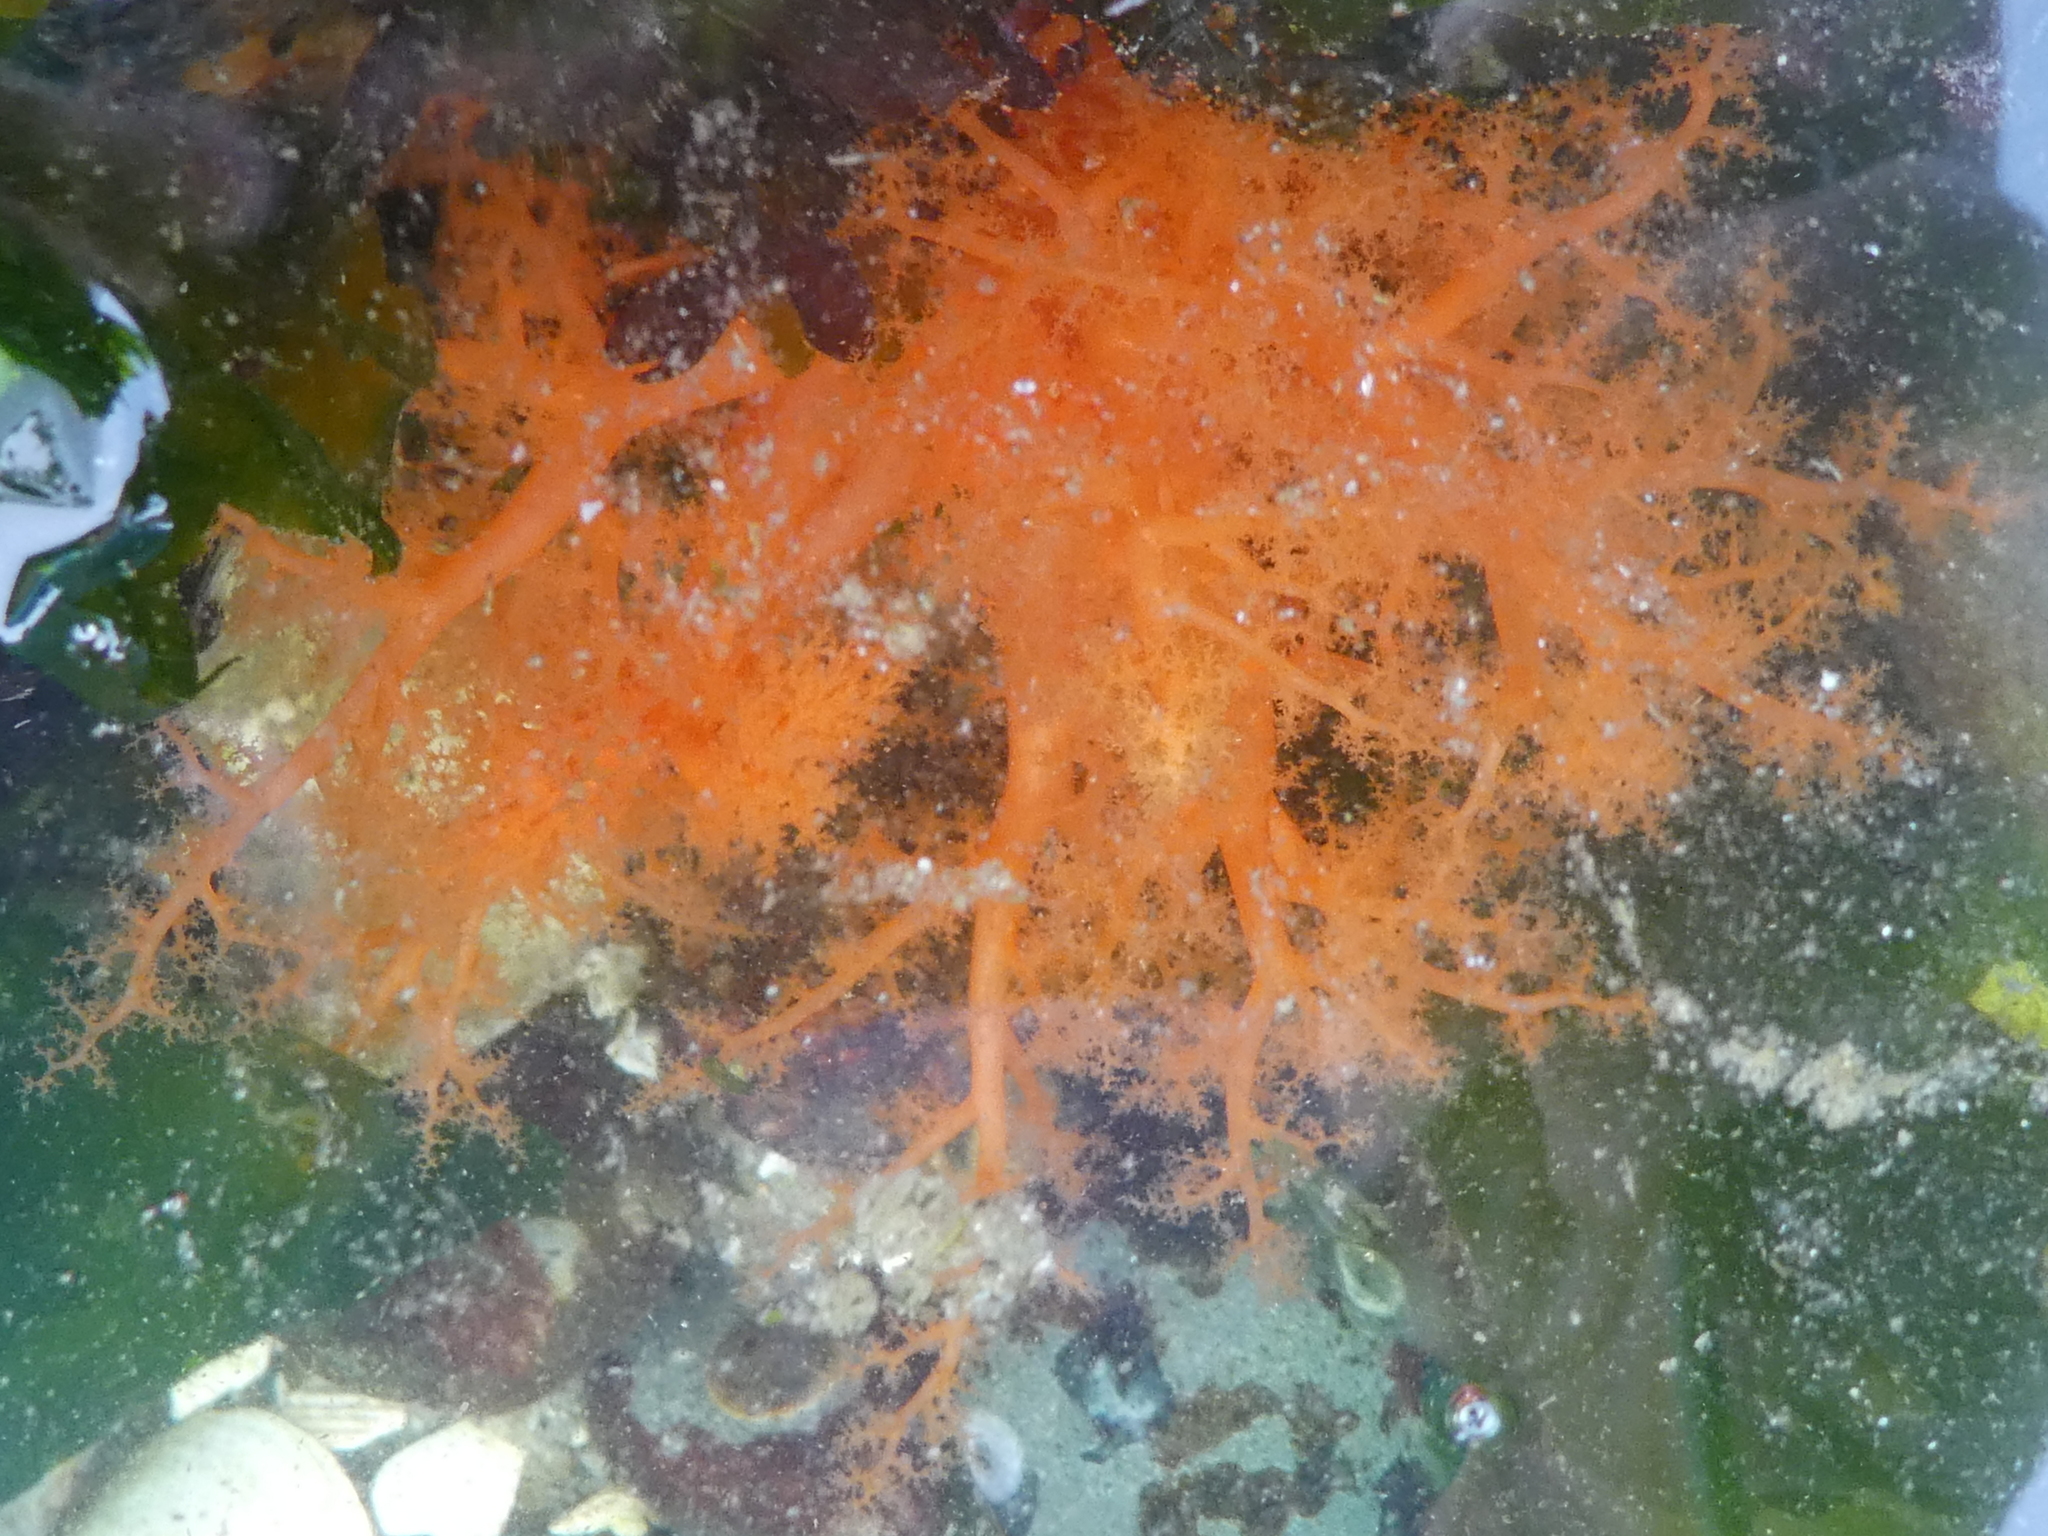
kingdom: Animalia
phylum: Echinodermata
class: Holothuroidea
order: Dendrochirotida
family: Cucumariidae
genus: Cucumaria
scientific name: Cucumaria miniata
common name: Orange sea cucumber
